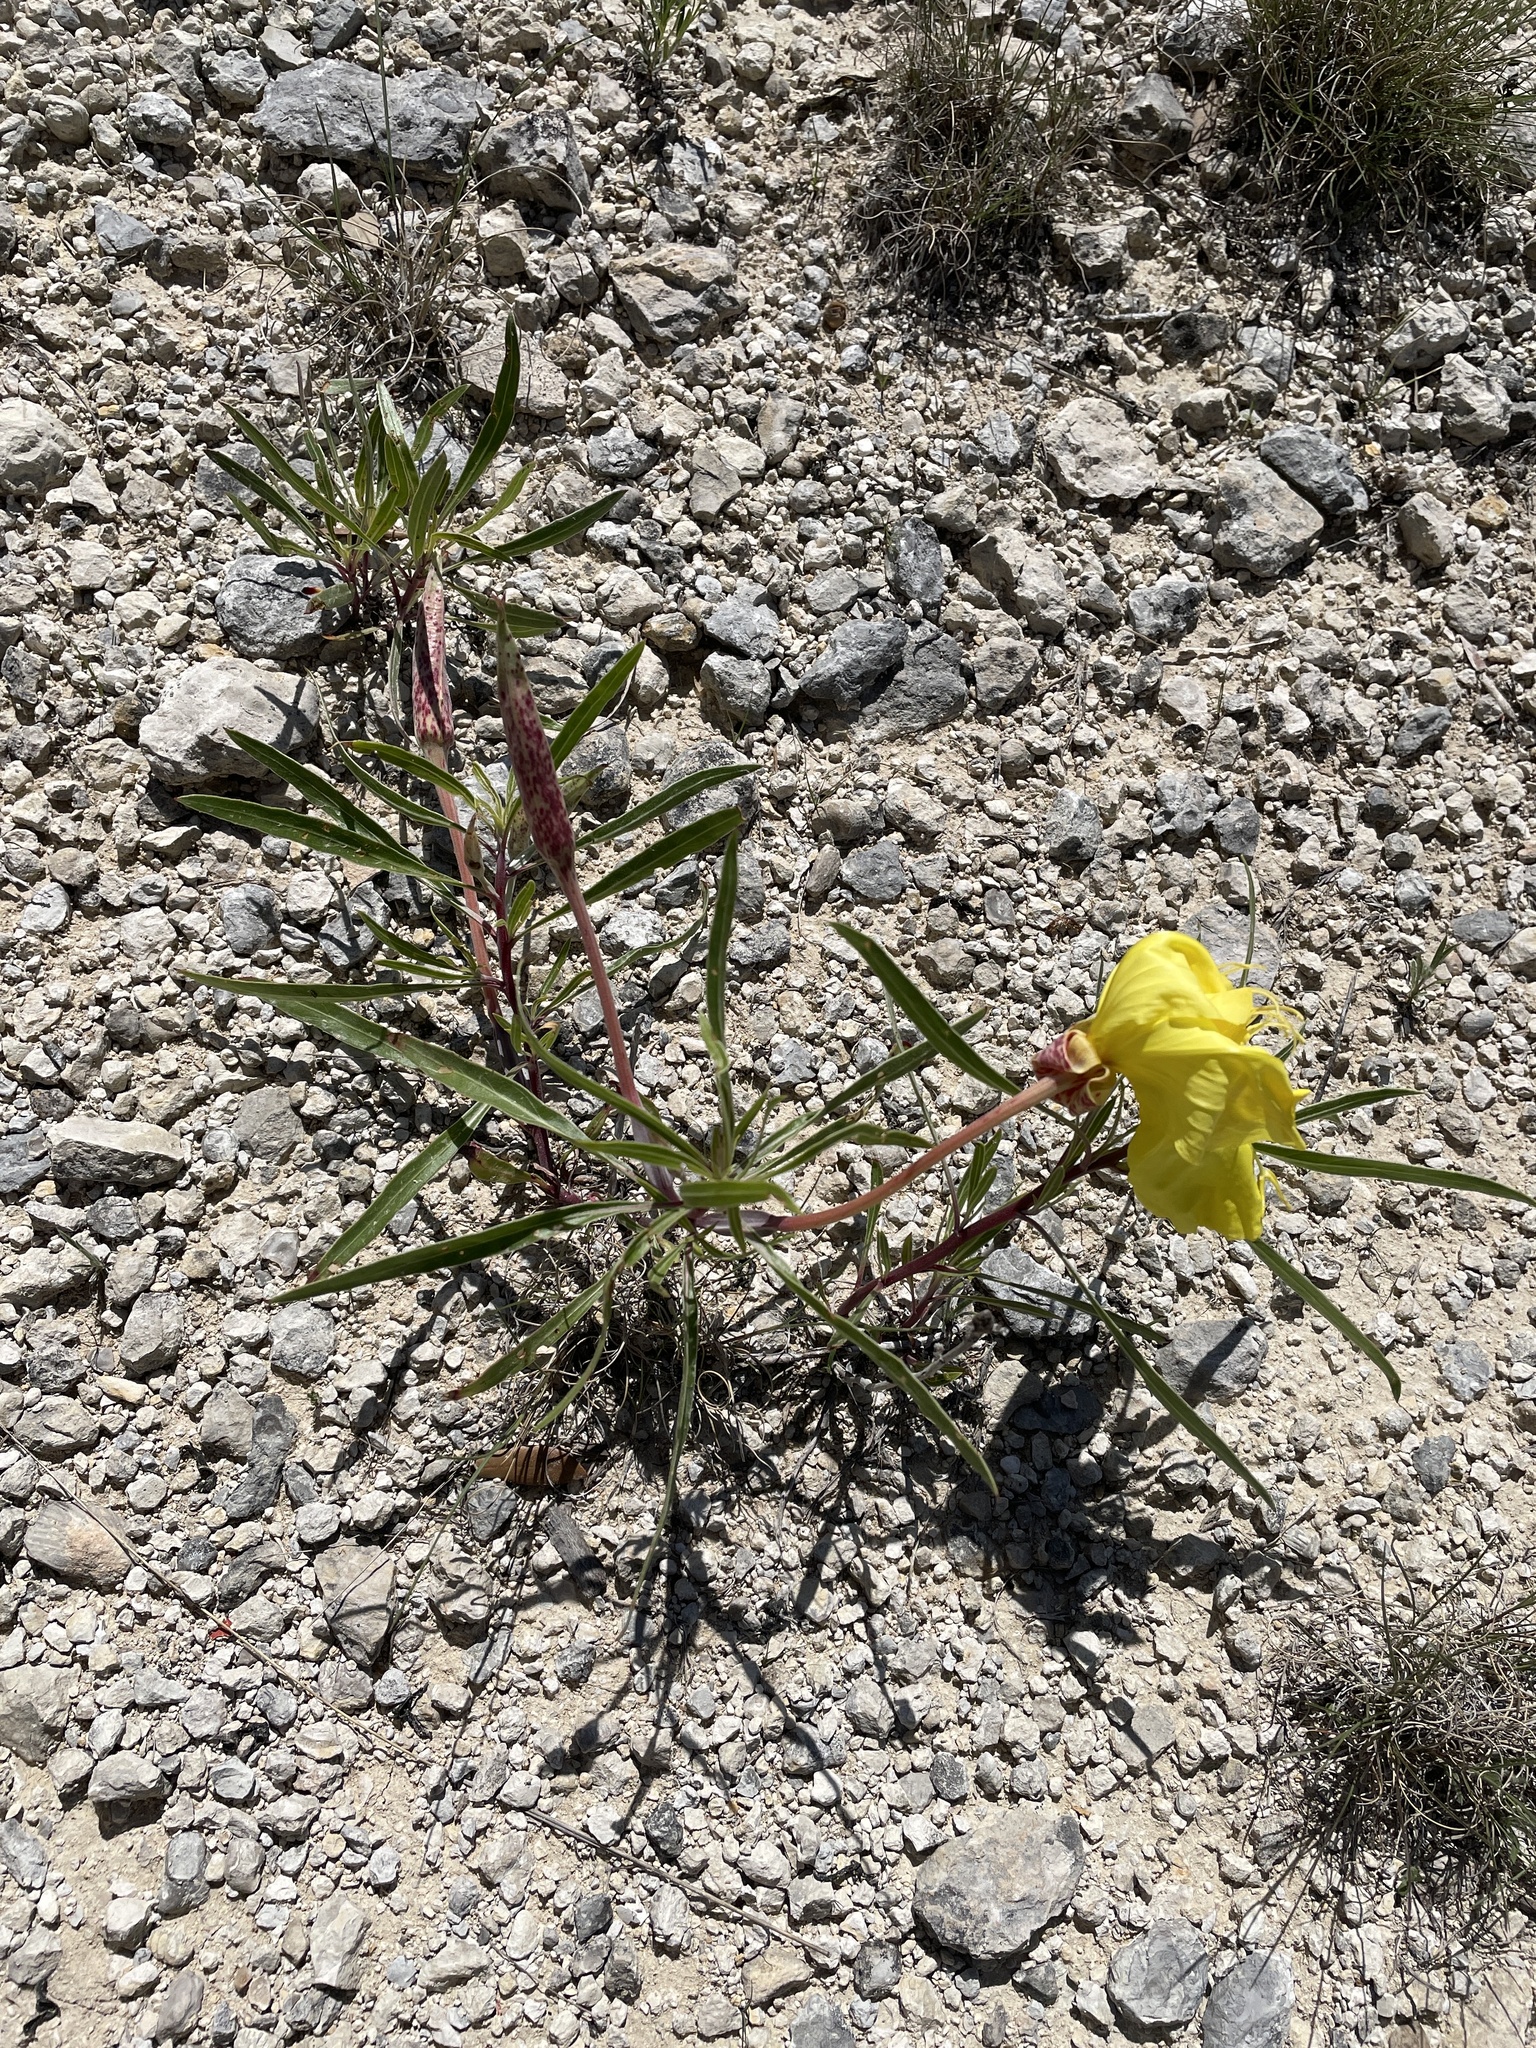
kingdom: Plantae
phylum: Tracheophyta
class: Magnoliopsida
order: Myrtales
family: Onagraceae
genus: Oenothera
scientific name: Oenothera macrocarpa
